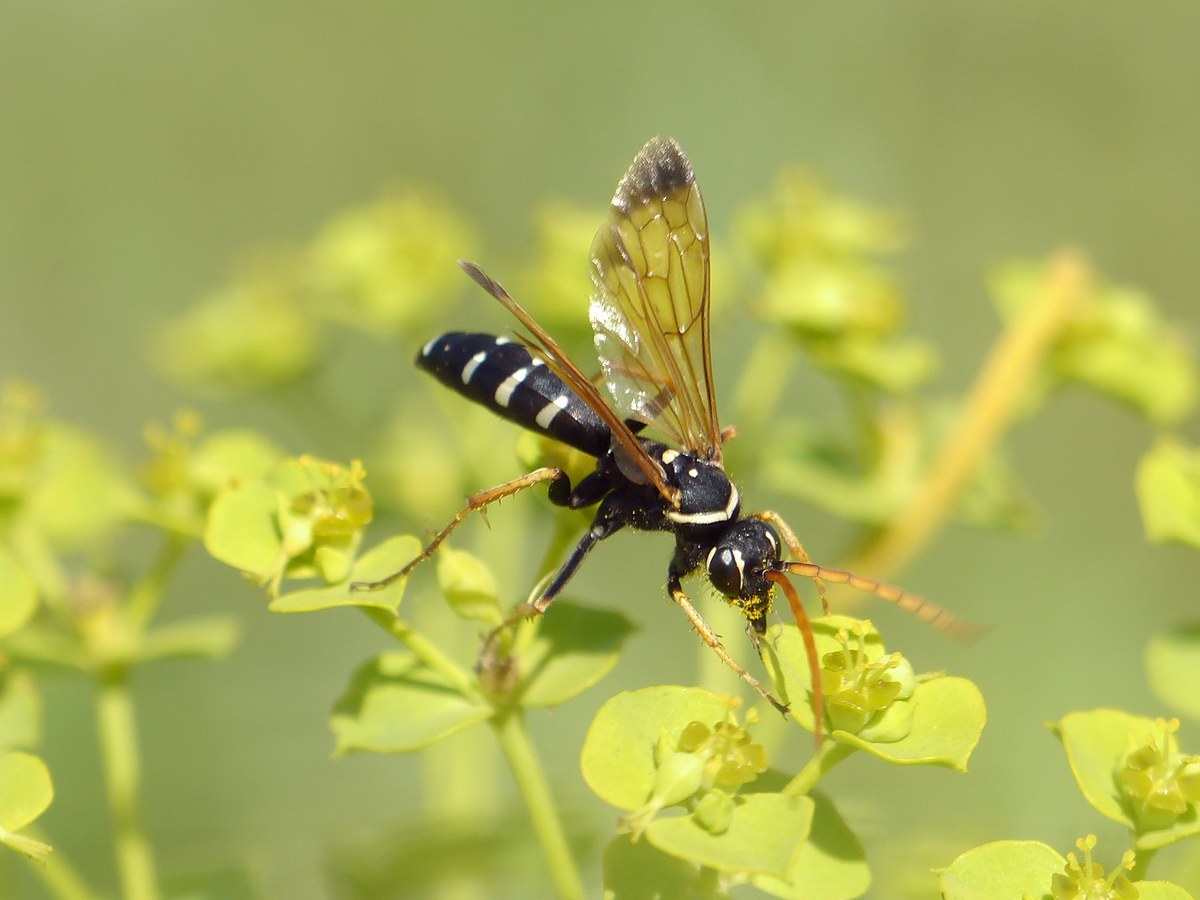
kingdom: Animalia
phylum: Arthropoda
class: Insecta
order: Hymenoptera
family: Pompilidae
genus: Parabatozonus
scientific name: Parabatozonus lacerticida
